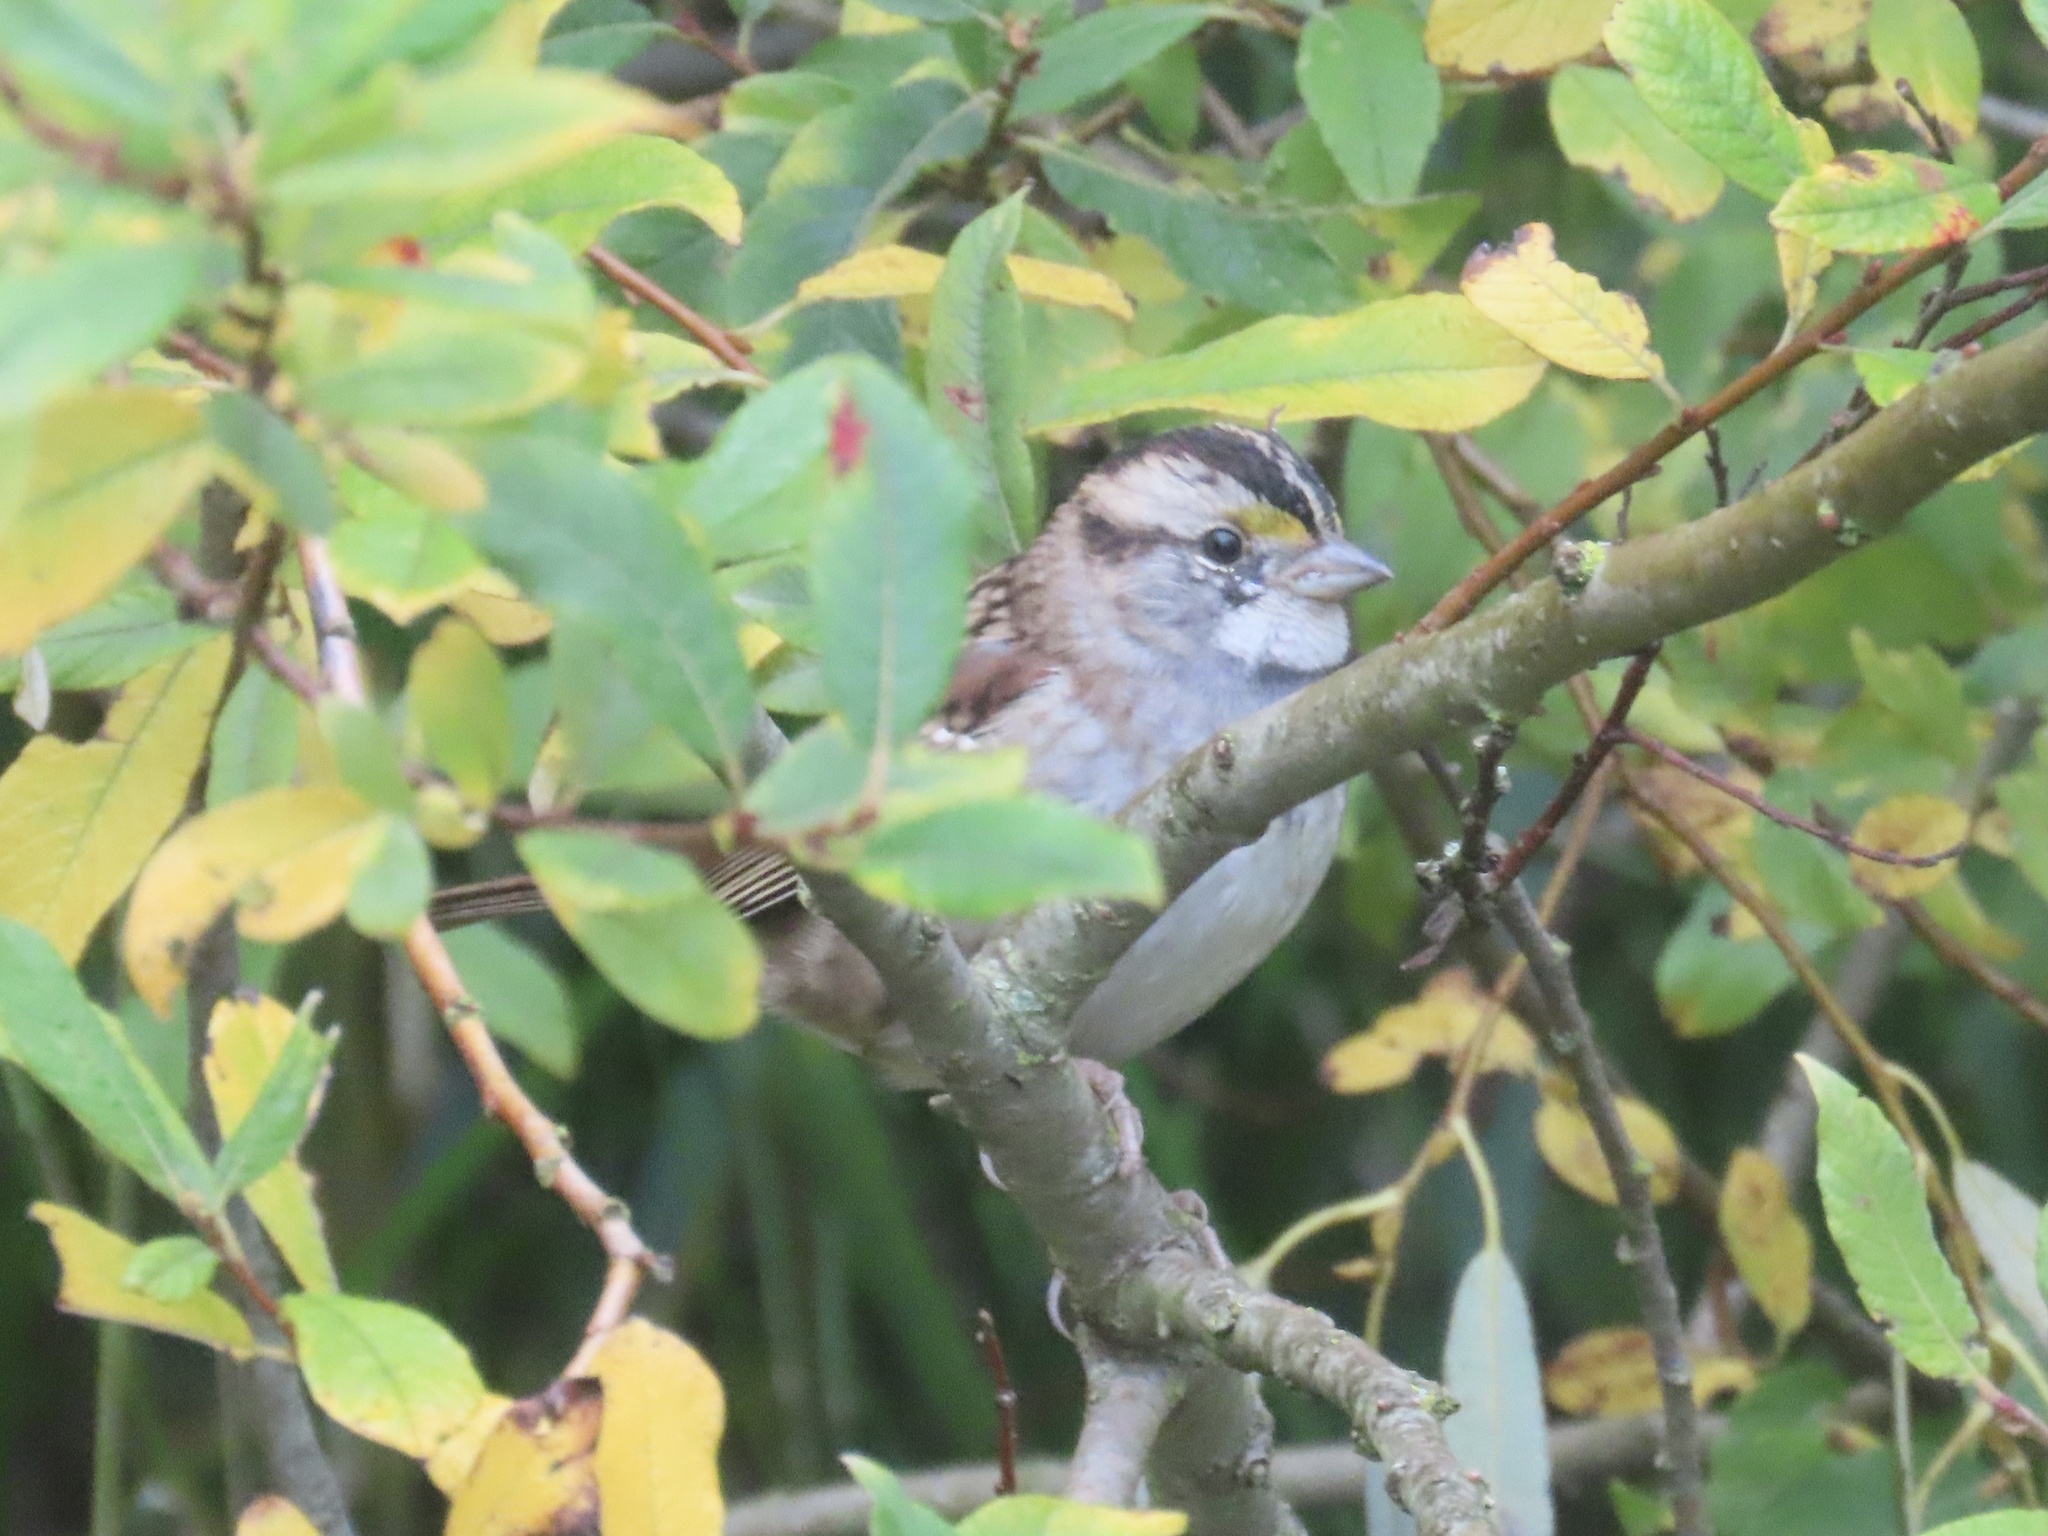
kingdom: Animalia
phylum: Chordata
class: Aves
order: Passeriformes
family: Passerellidae
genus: Zonotrichia
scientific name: Zonotrichia albicollis
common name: White-throated sparrow
